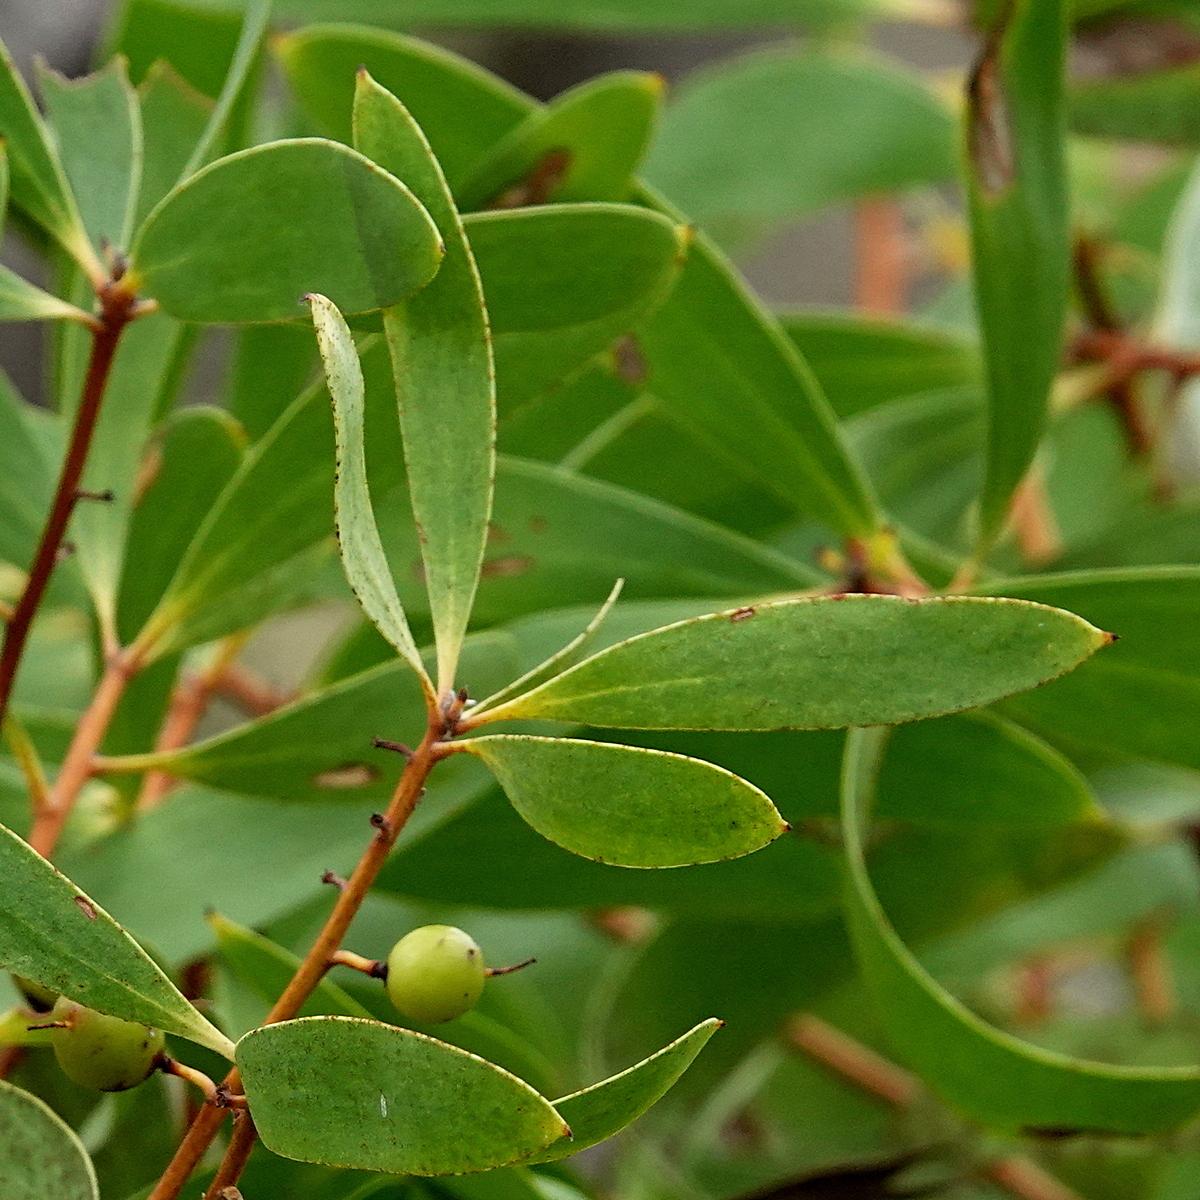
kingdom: Plantae
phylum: Tracheophyta
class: Magnoliopsida
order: Proteales
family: Proteaceae
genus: Persoonia
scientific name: Persoonia levis
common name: Smooth geebung
